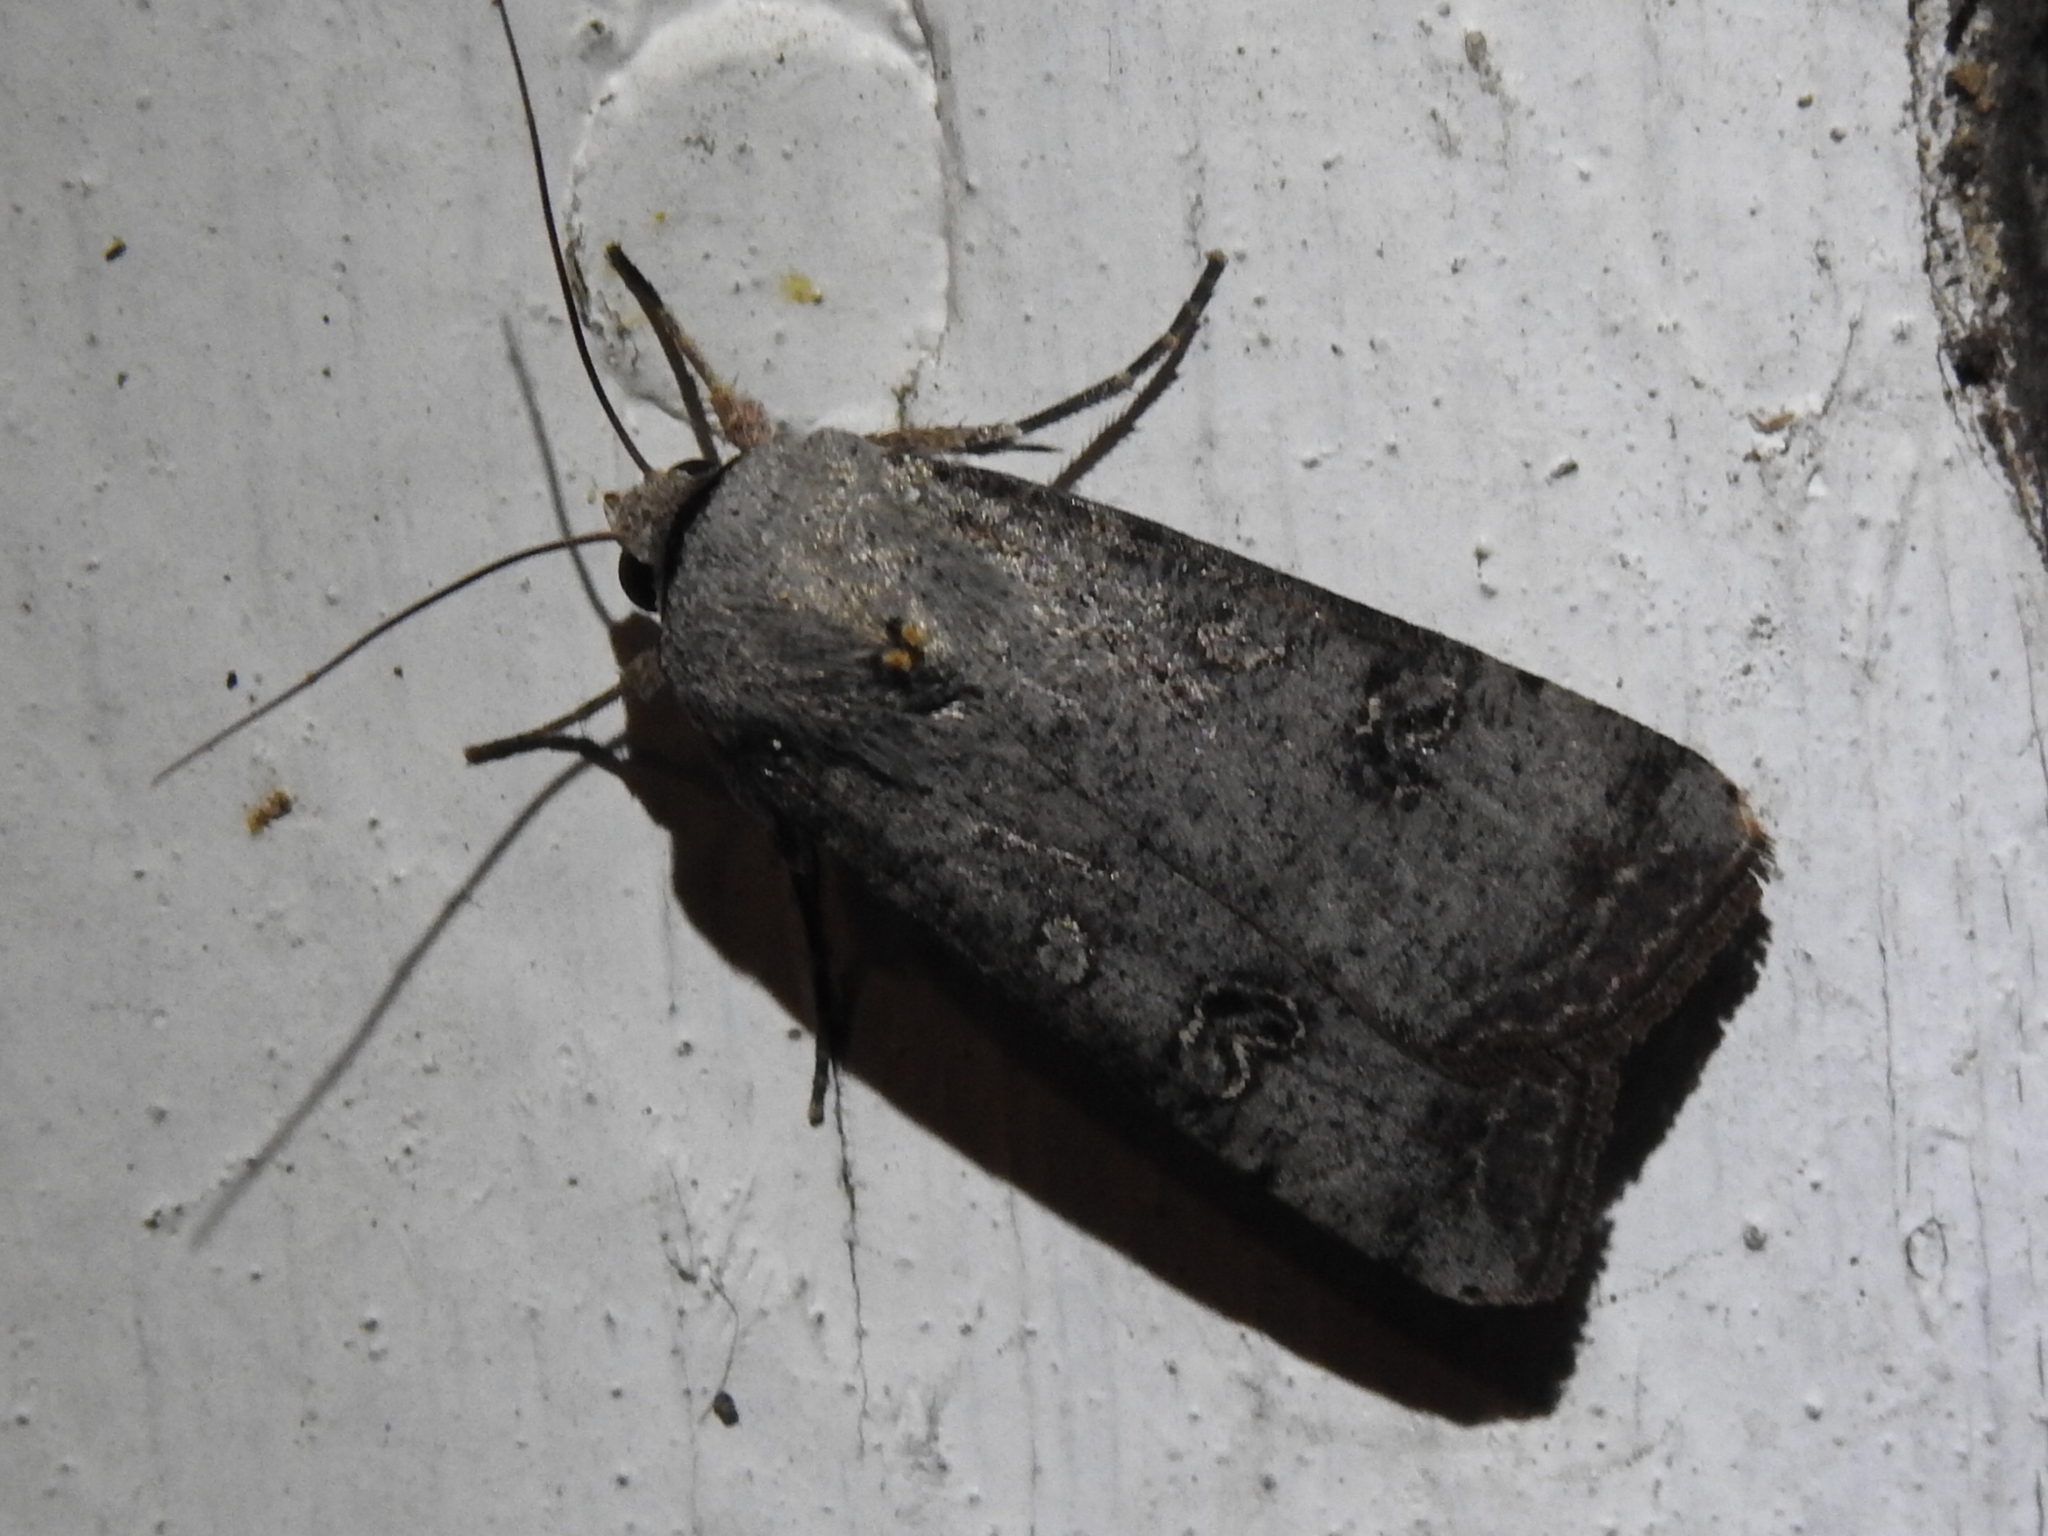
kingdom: Animalia
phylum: Arthropoda
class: Insecta
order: Lepidoptera
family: Noctuidae
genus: Anicla
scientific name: Anicla infecta
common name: Green cutworm
